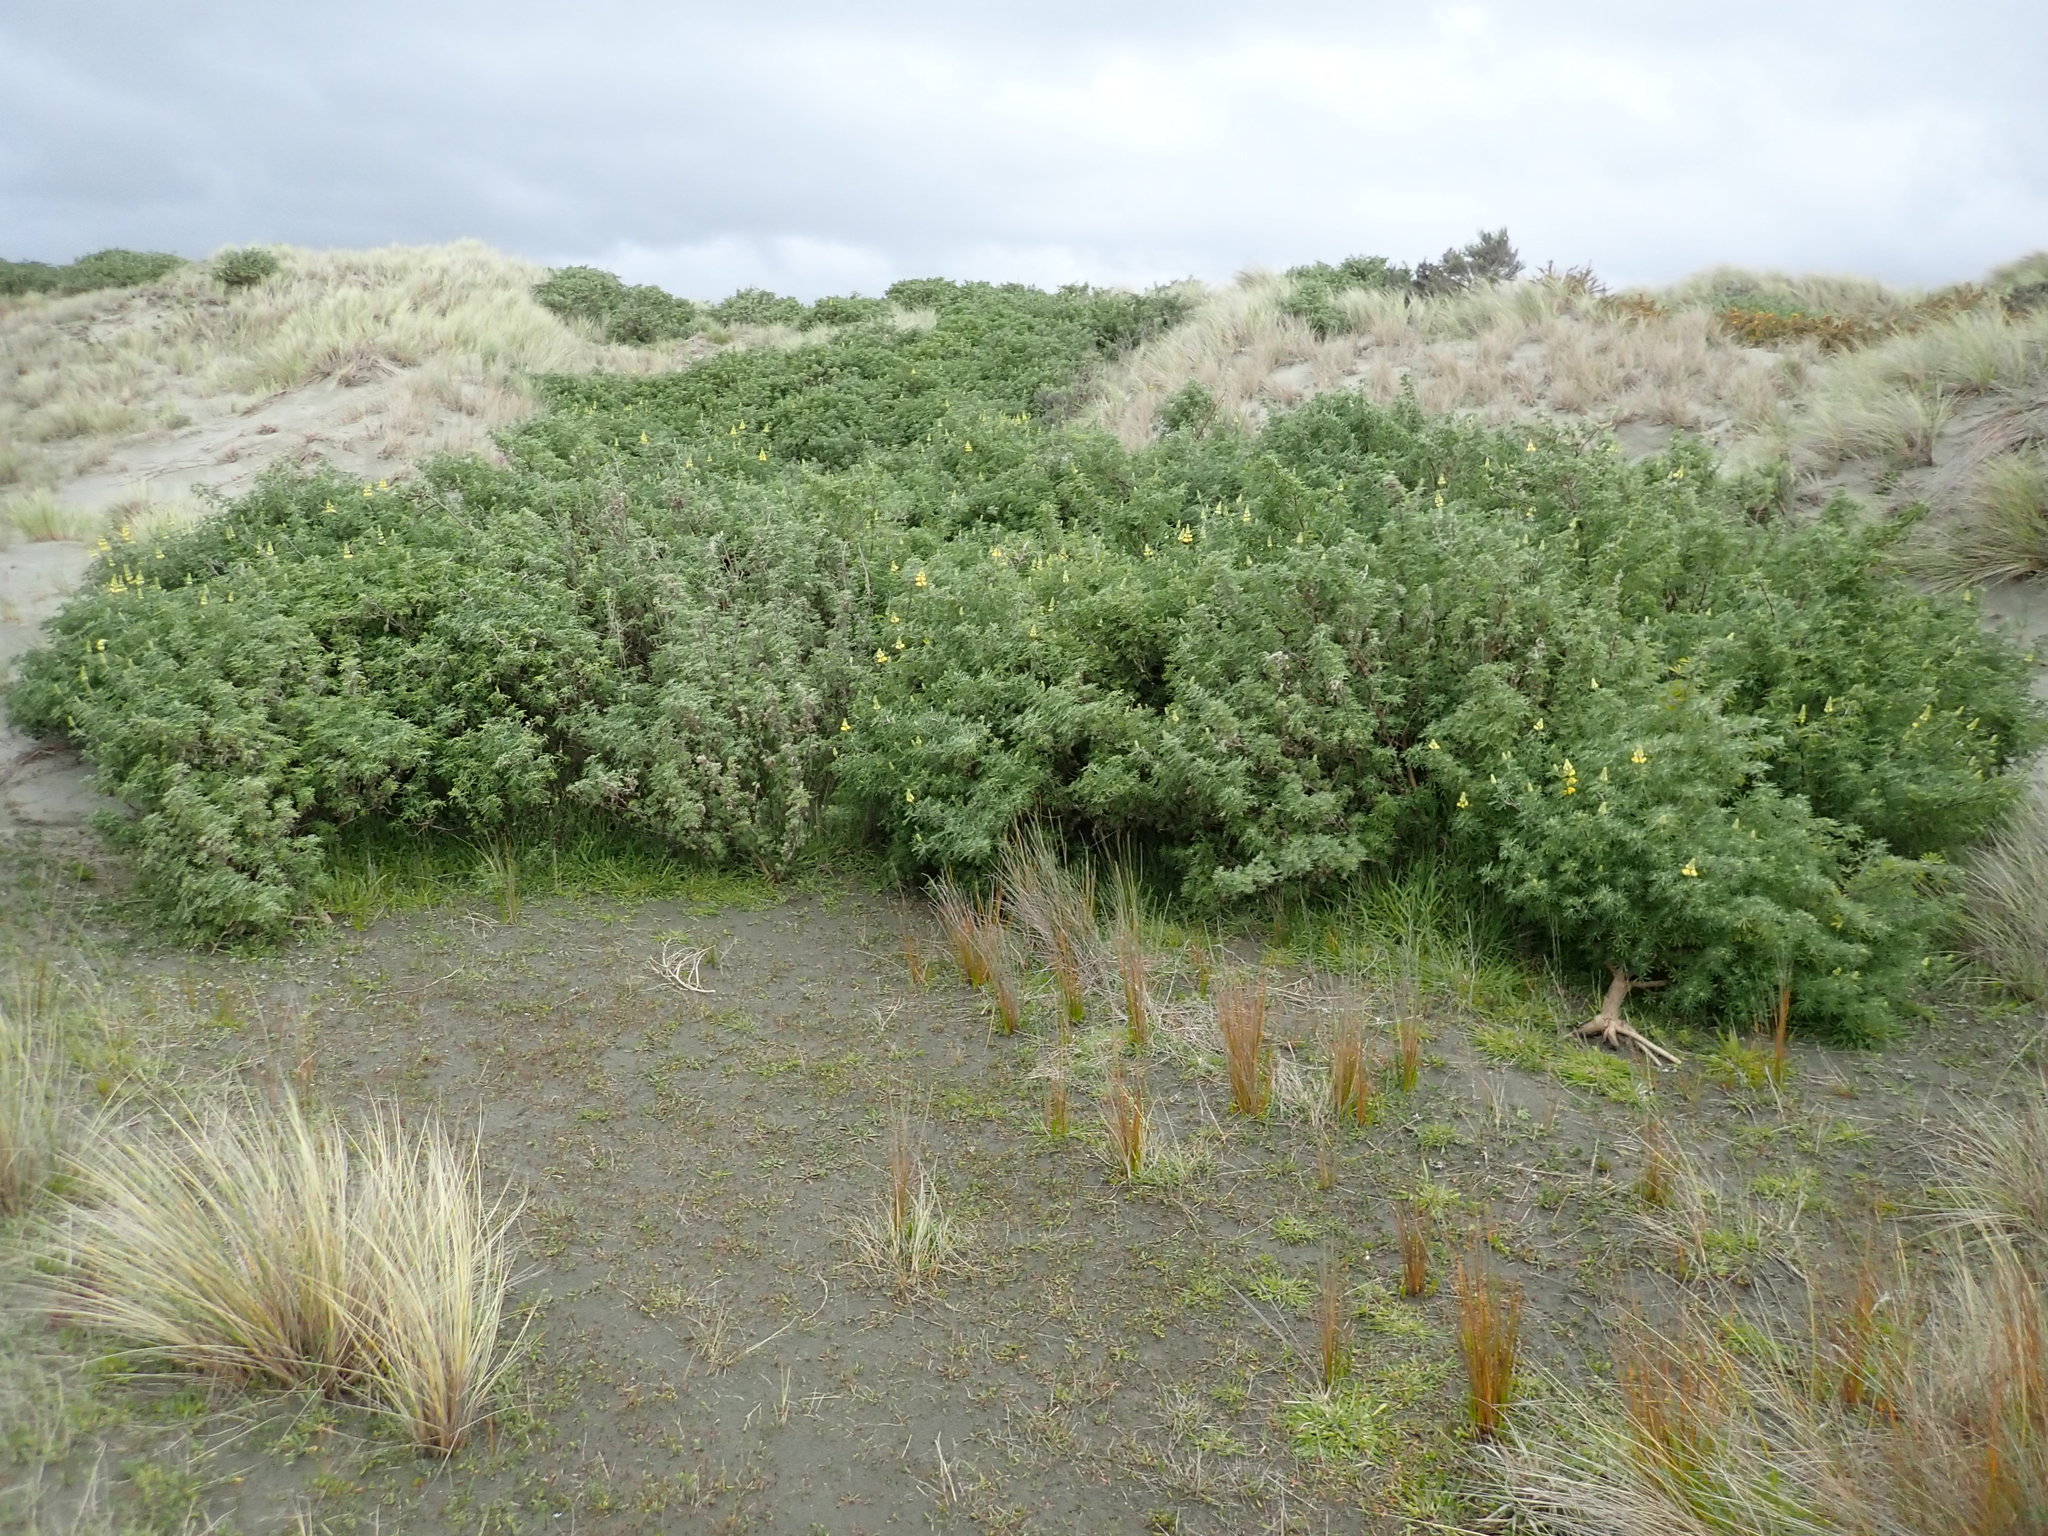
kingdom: Plantae
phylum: Tracheophyta
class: Magnoliopsida
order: Fabales
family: Fabaceae
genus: Lupinus
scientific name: Lupinus arboreus
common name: Yellow bush lupine
